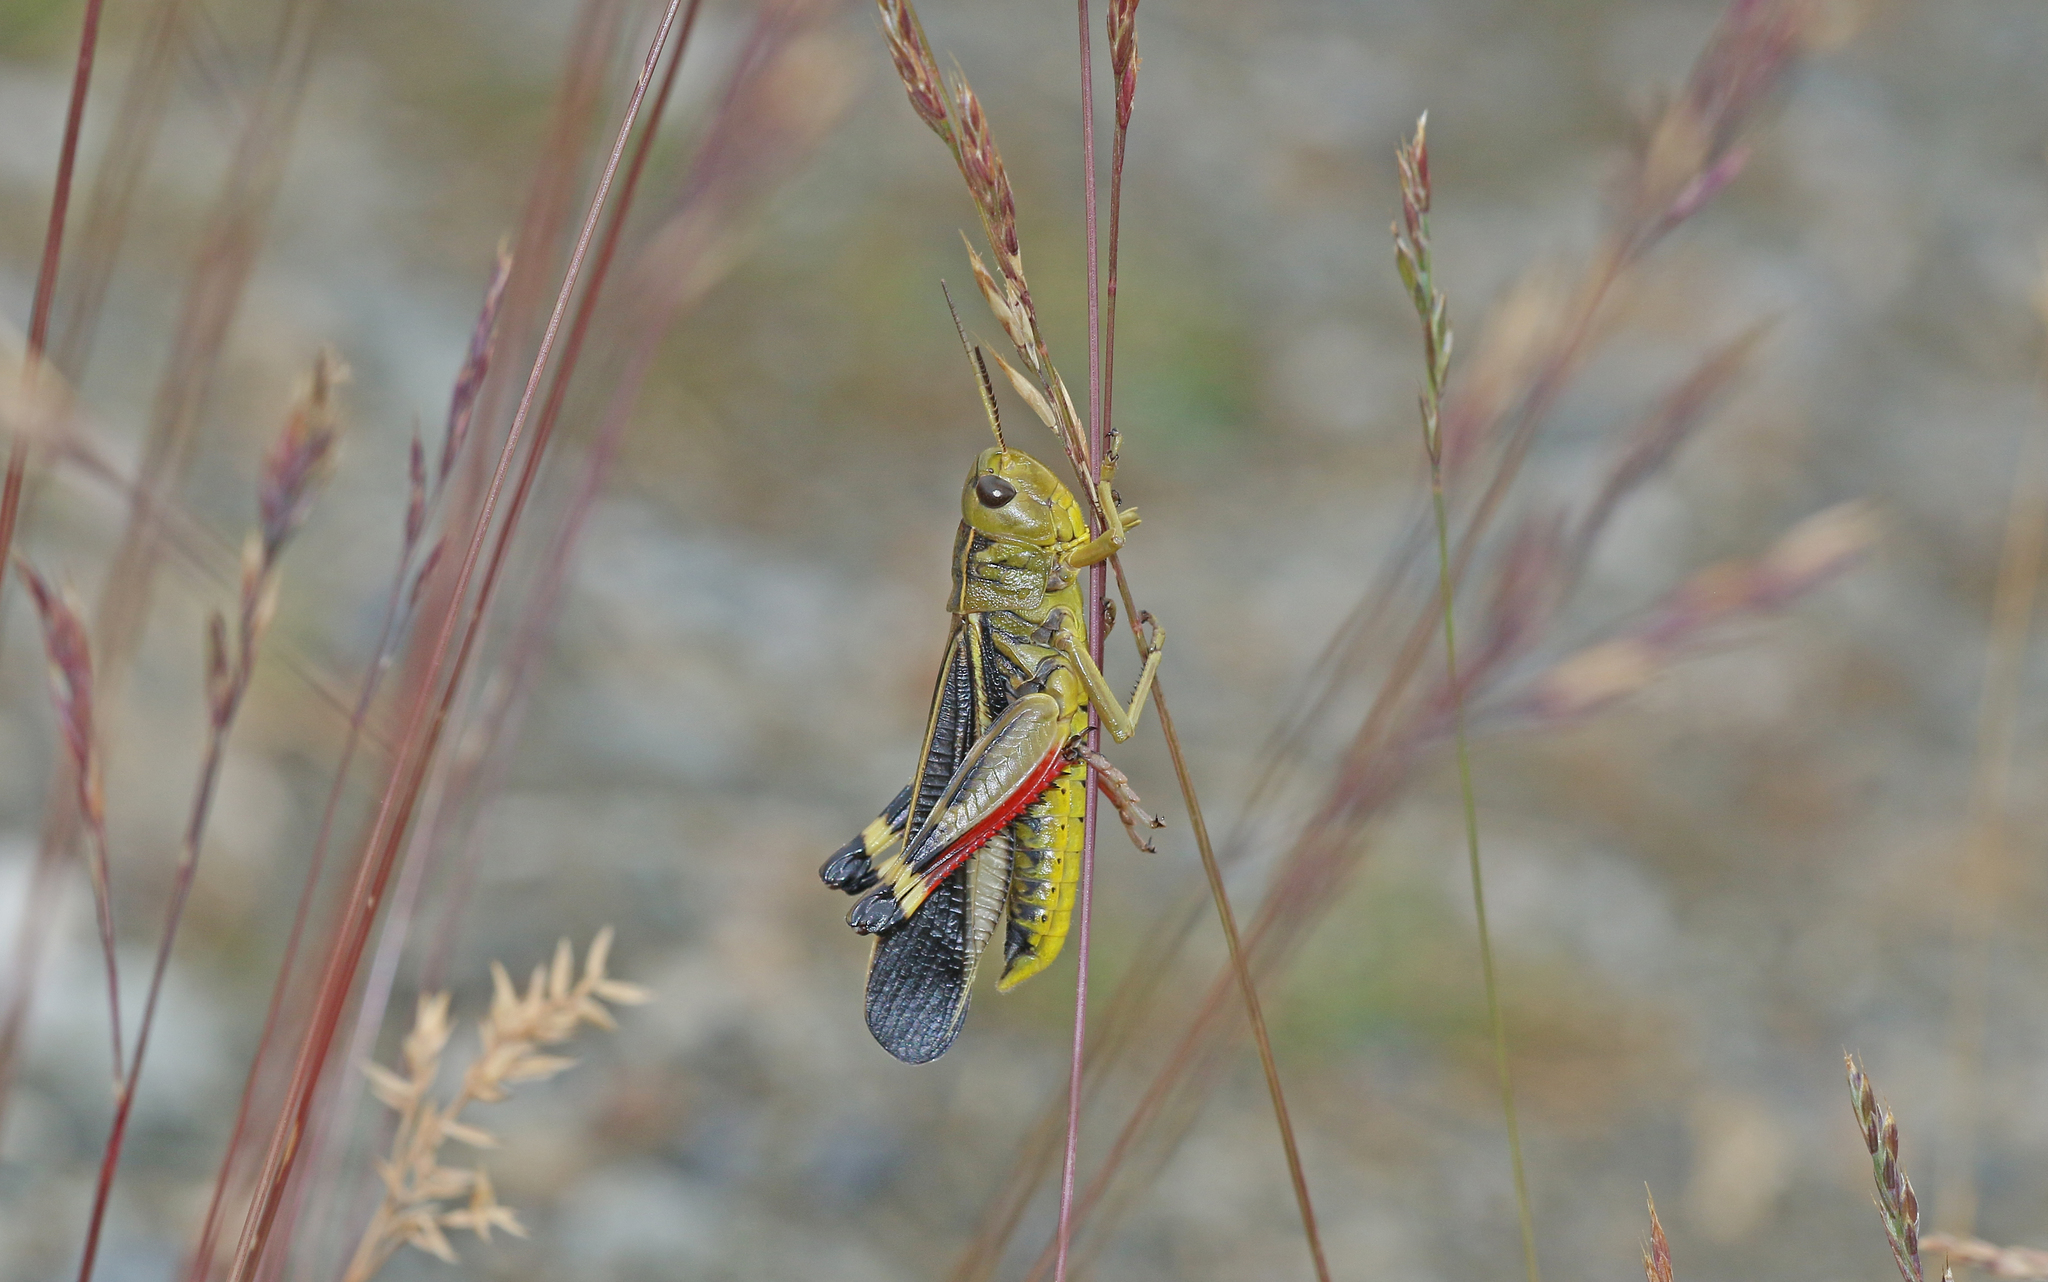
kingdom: Animalia
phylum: Arthropoda
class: Insecta
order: Orthoptera
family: Acrididae
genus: Arcyptera
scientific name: Arcyptera fusca
